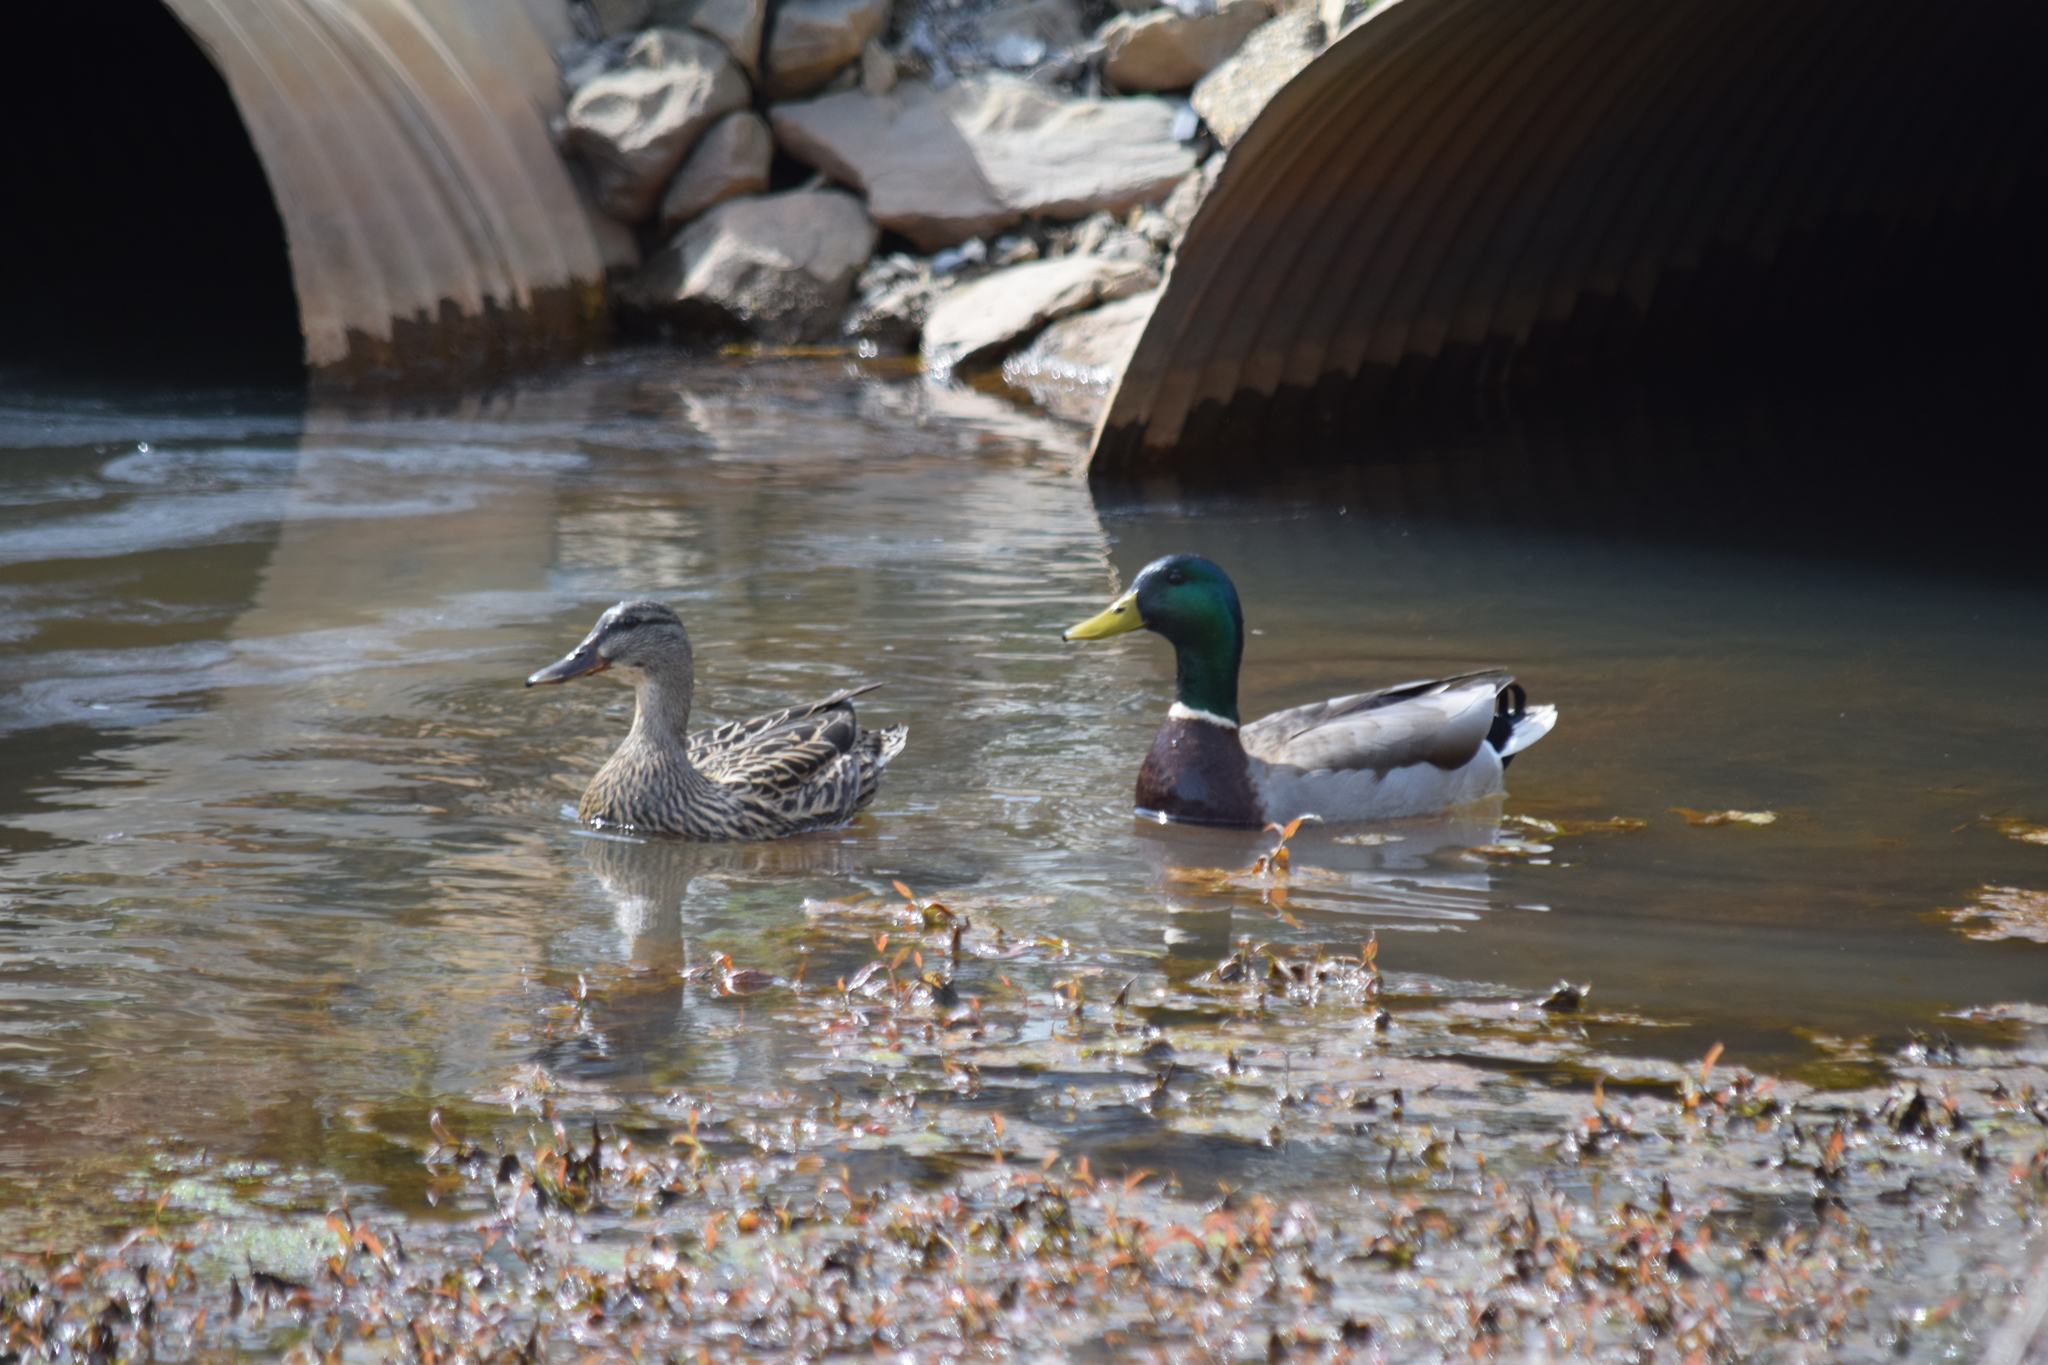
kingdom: Animalia
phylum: Chordata
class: Aves
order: Anseriformes
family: Anatidae
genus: Anas
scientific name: Anas platyrhynchos
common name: Mallard
